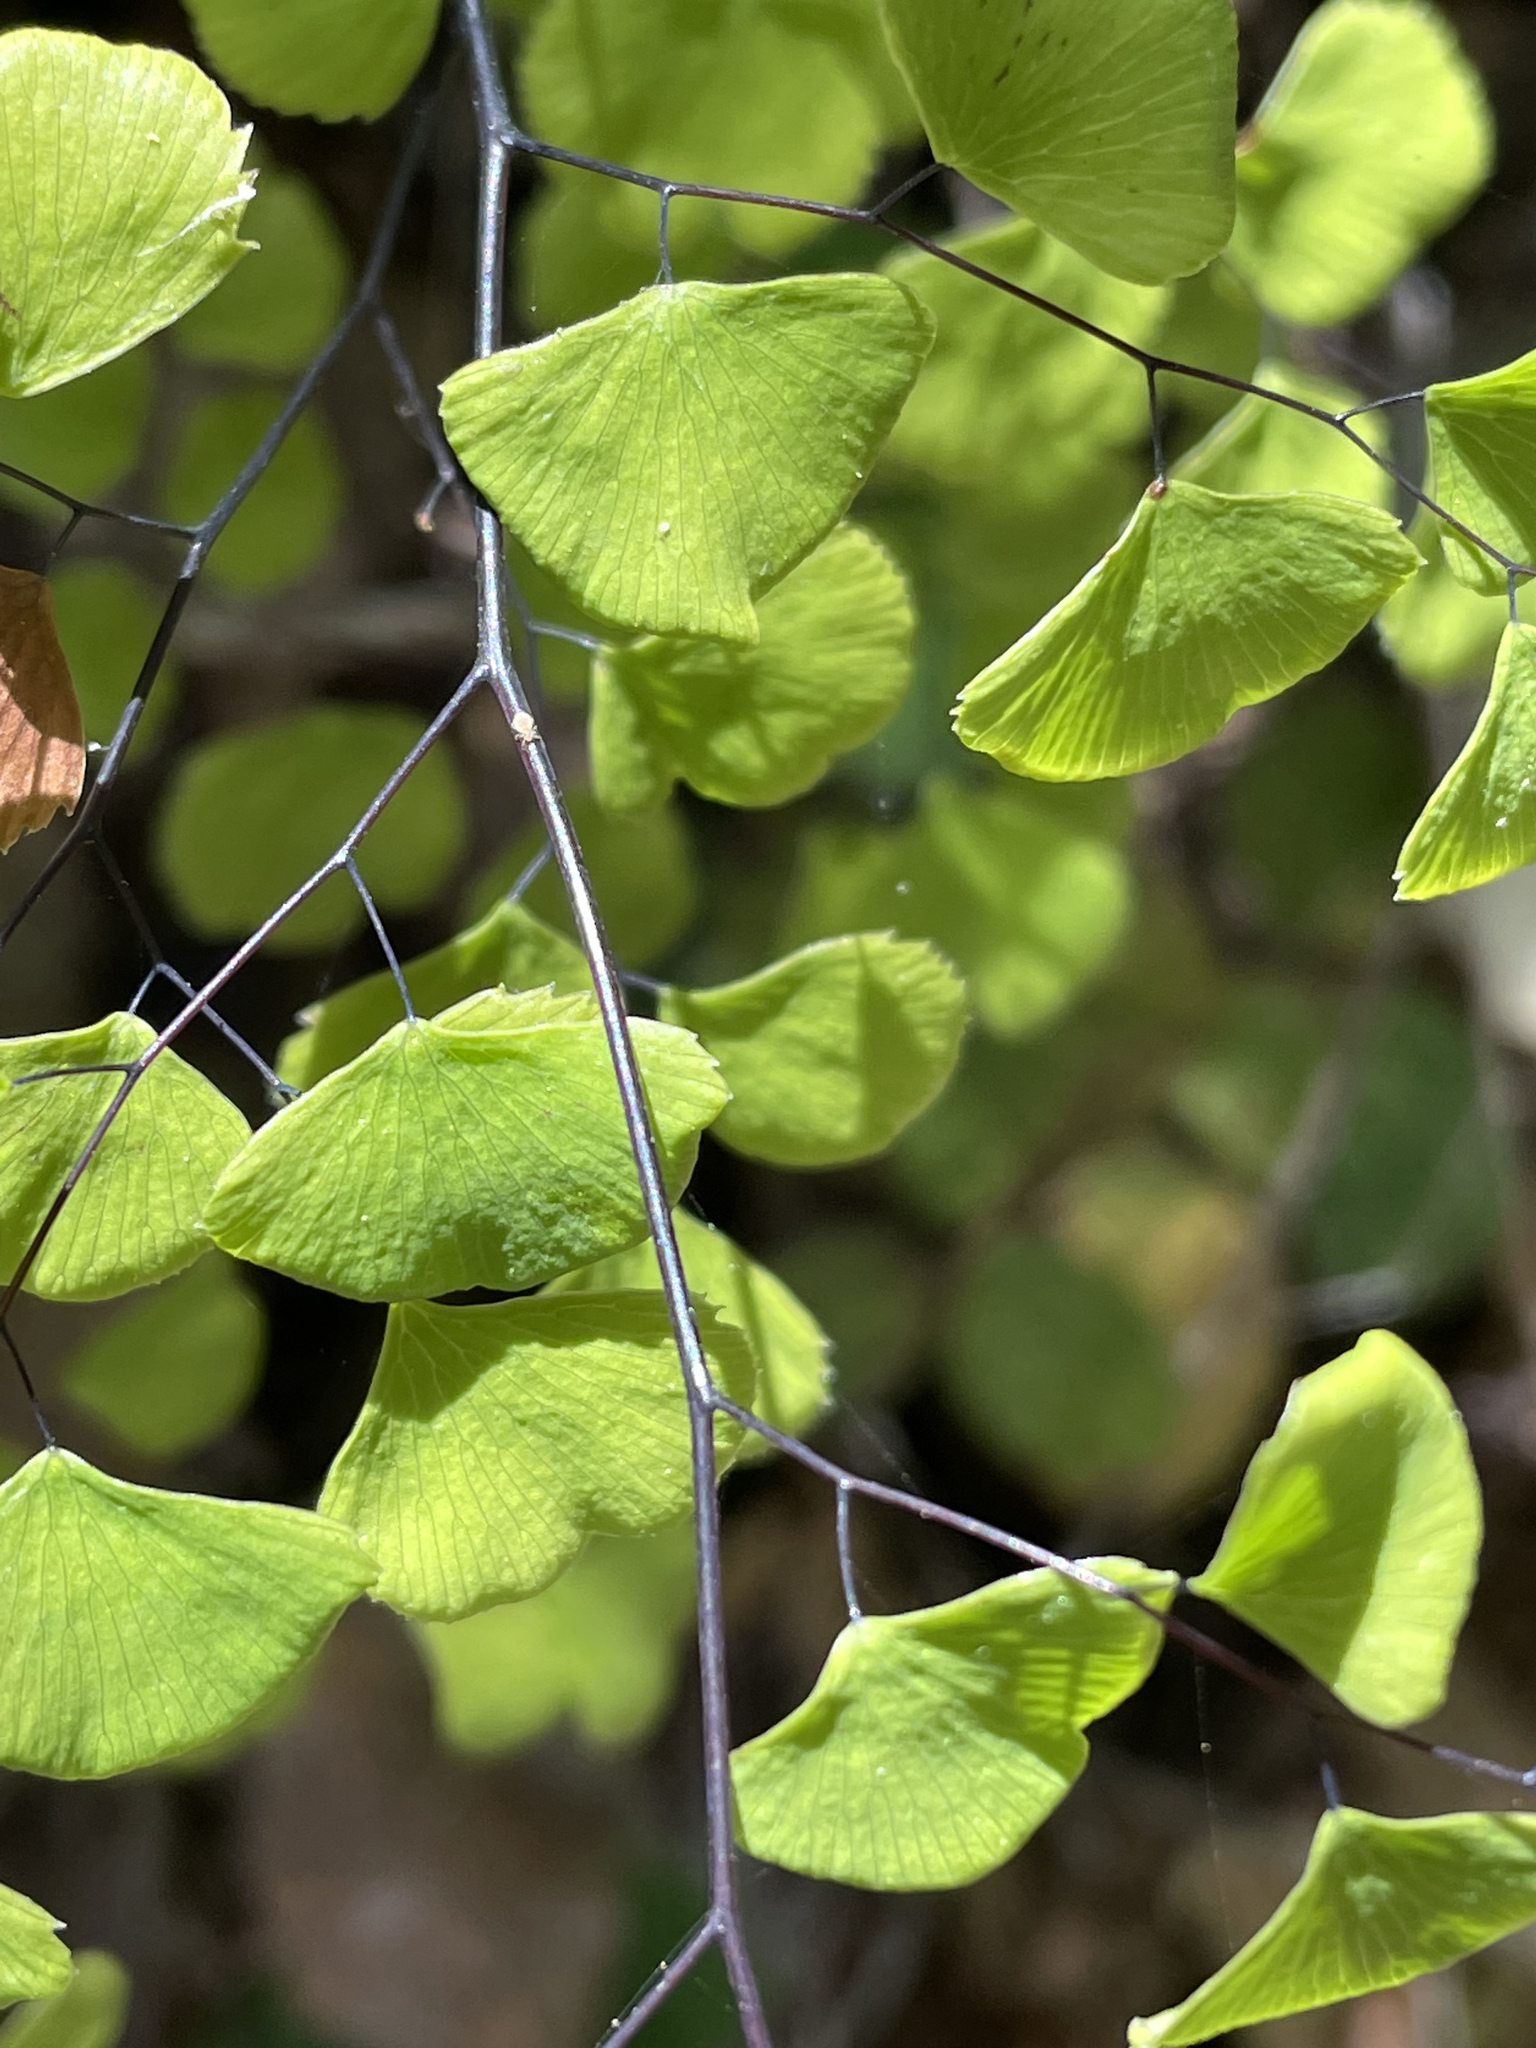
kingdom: Plantae
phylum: Tracheophyta
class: Polypodiopsida
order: Polypodiales
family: Pteridaceae
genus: Adiantum
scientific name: Adiantum jordanii
